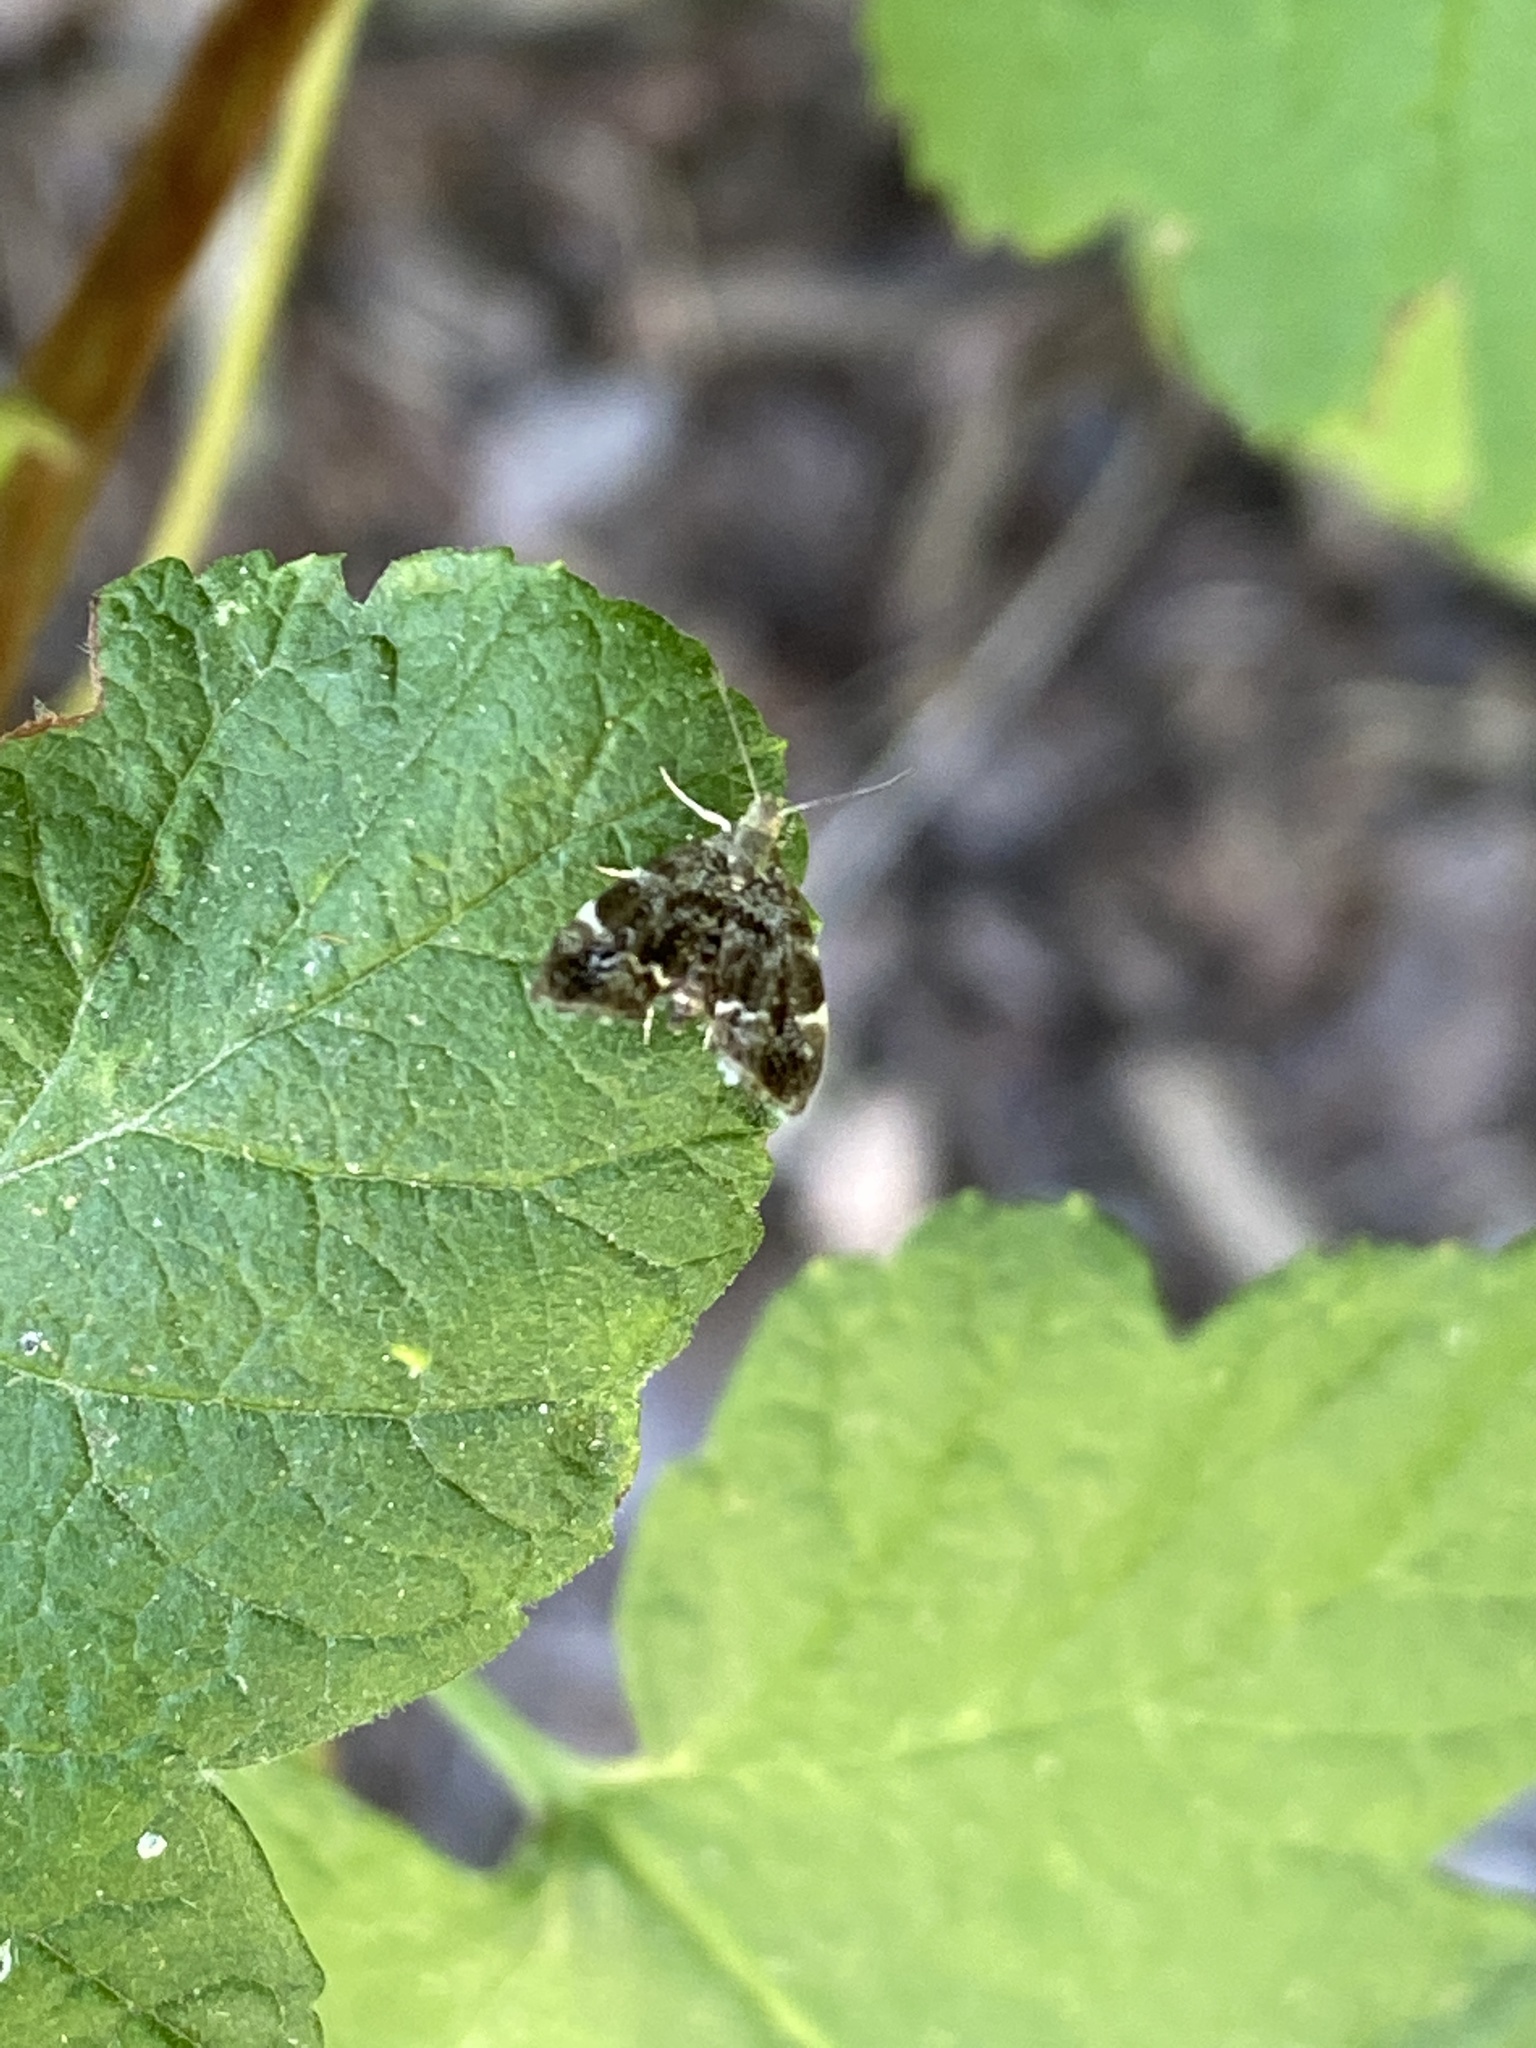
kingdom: Animalia
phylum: Arthropoda
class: Insecta
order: Lepidoptera
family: Choreutidae
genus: Anthophila
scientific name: Anthophila fabriciana
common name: Nettle-tap
